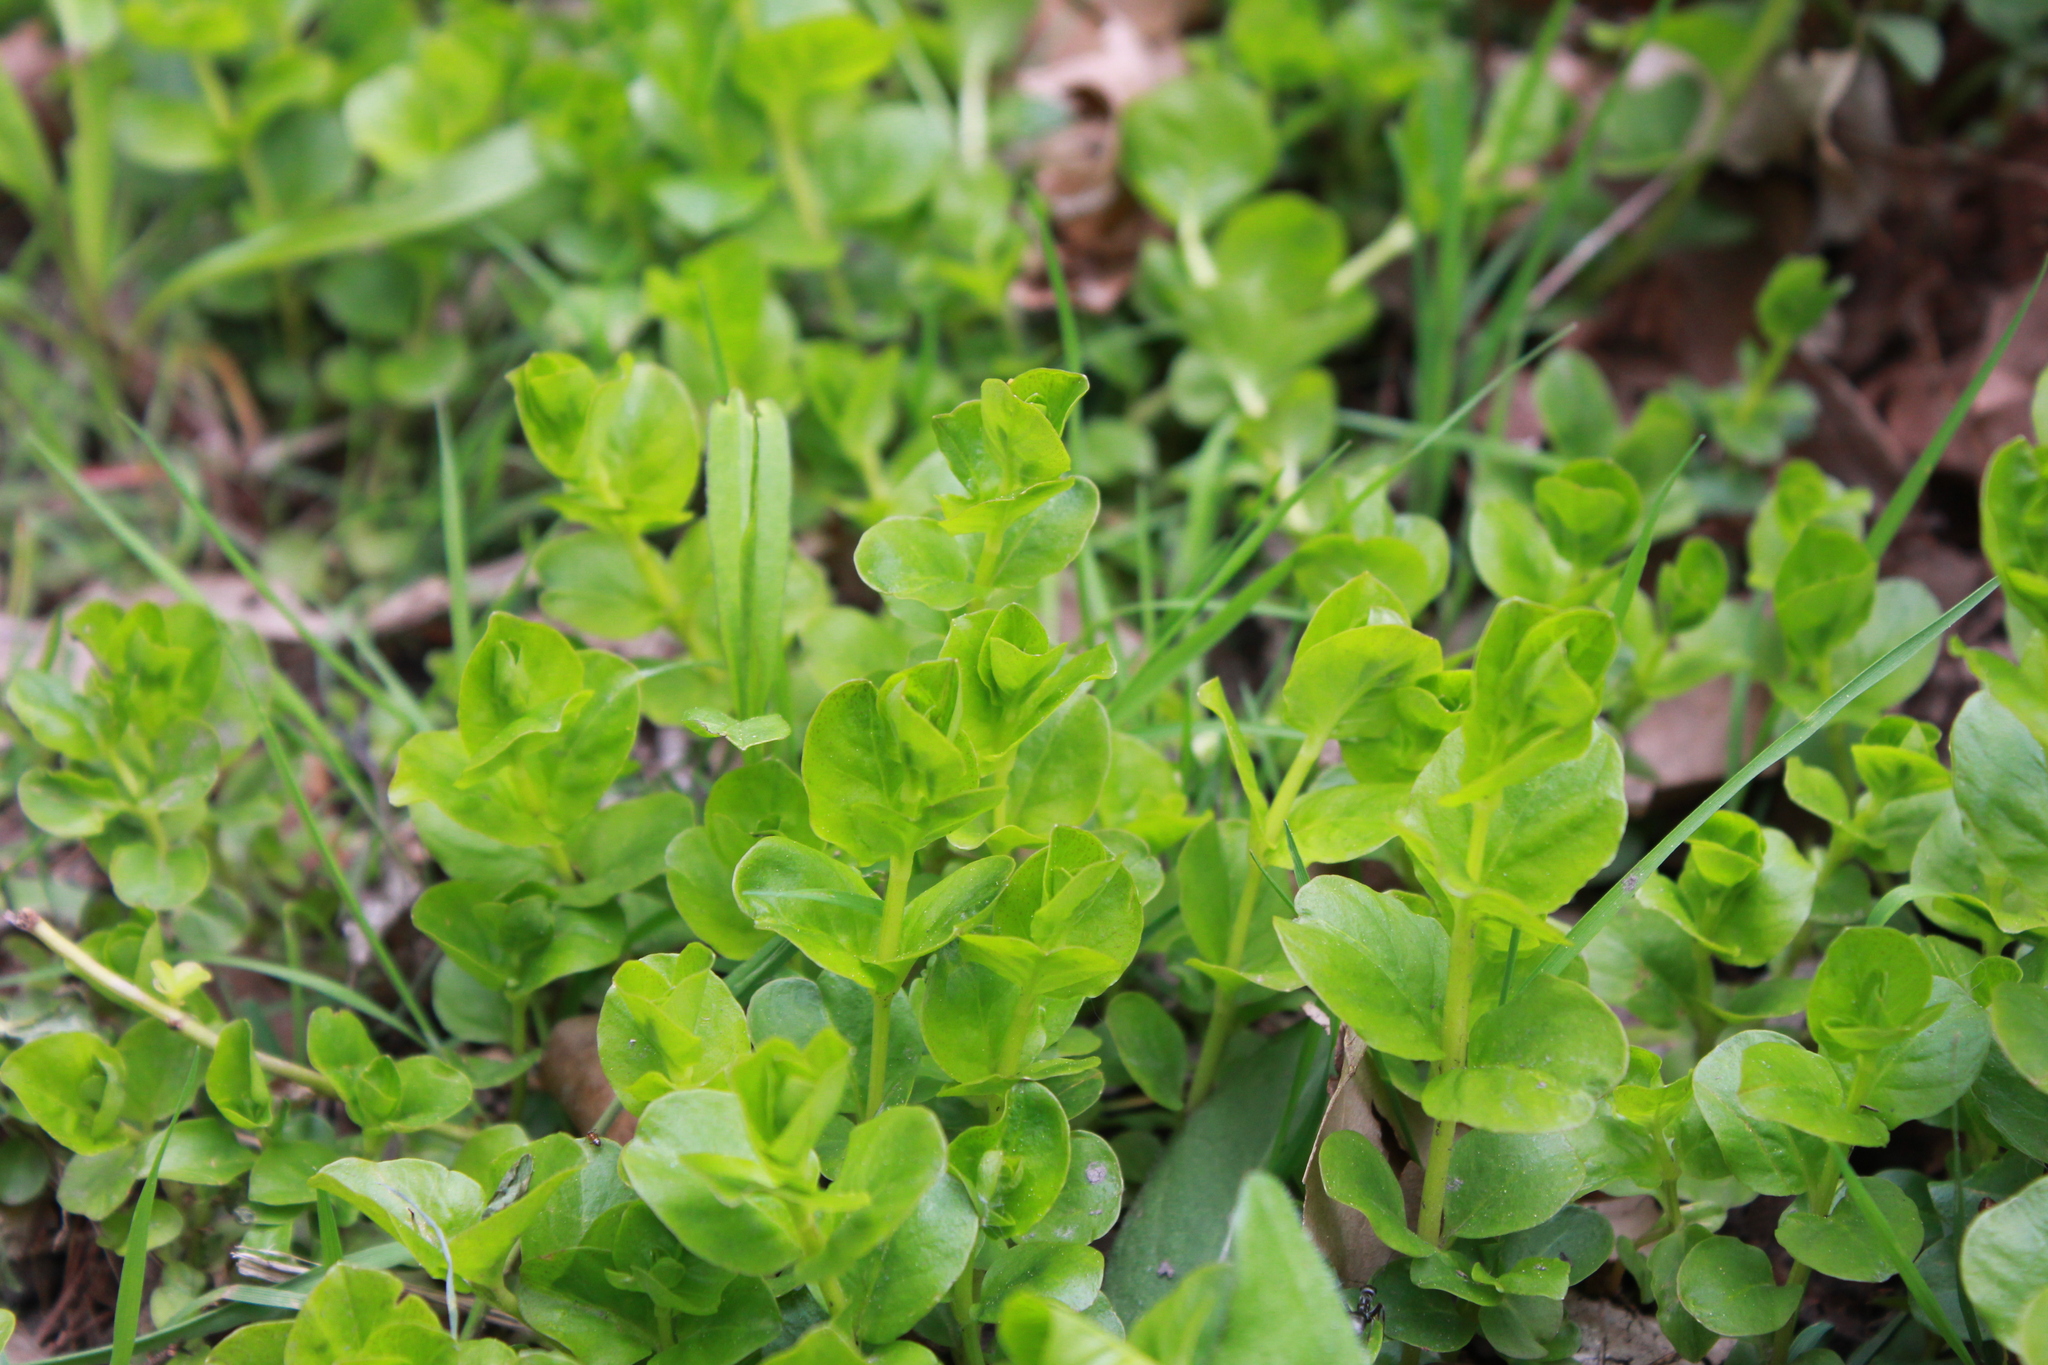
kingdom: Plantae
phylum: Tracheophyta
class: Magnoliopsida
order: Ericales
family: Primulaceae
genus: Lysimachia
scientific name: Lysimachia nummularia
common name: Moneywort
